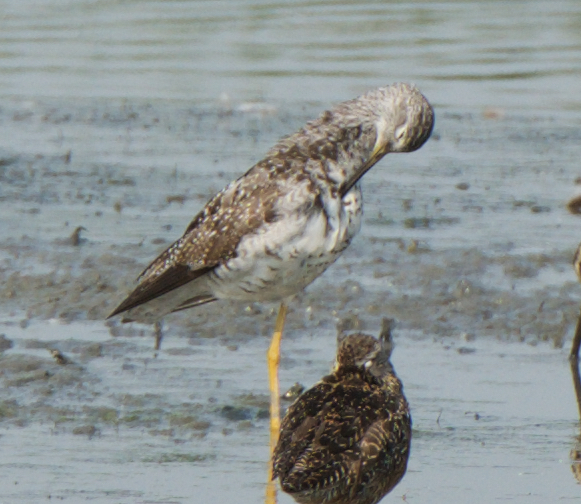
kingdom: Animalia
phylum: Chordata
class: Aves
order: Charadriiformes
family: Scolopacidae
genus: Tringa
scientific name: Tringa melanoleuca
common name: Greater yellowlegs
